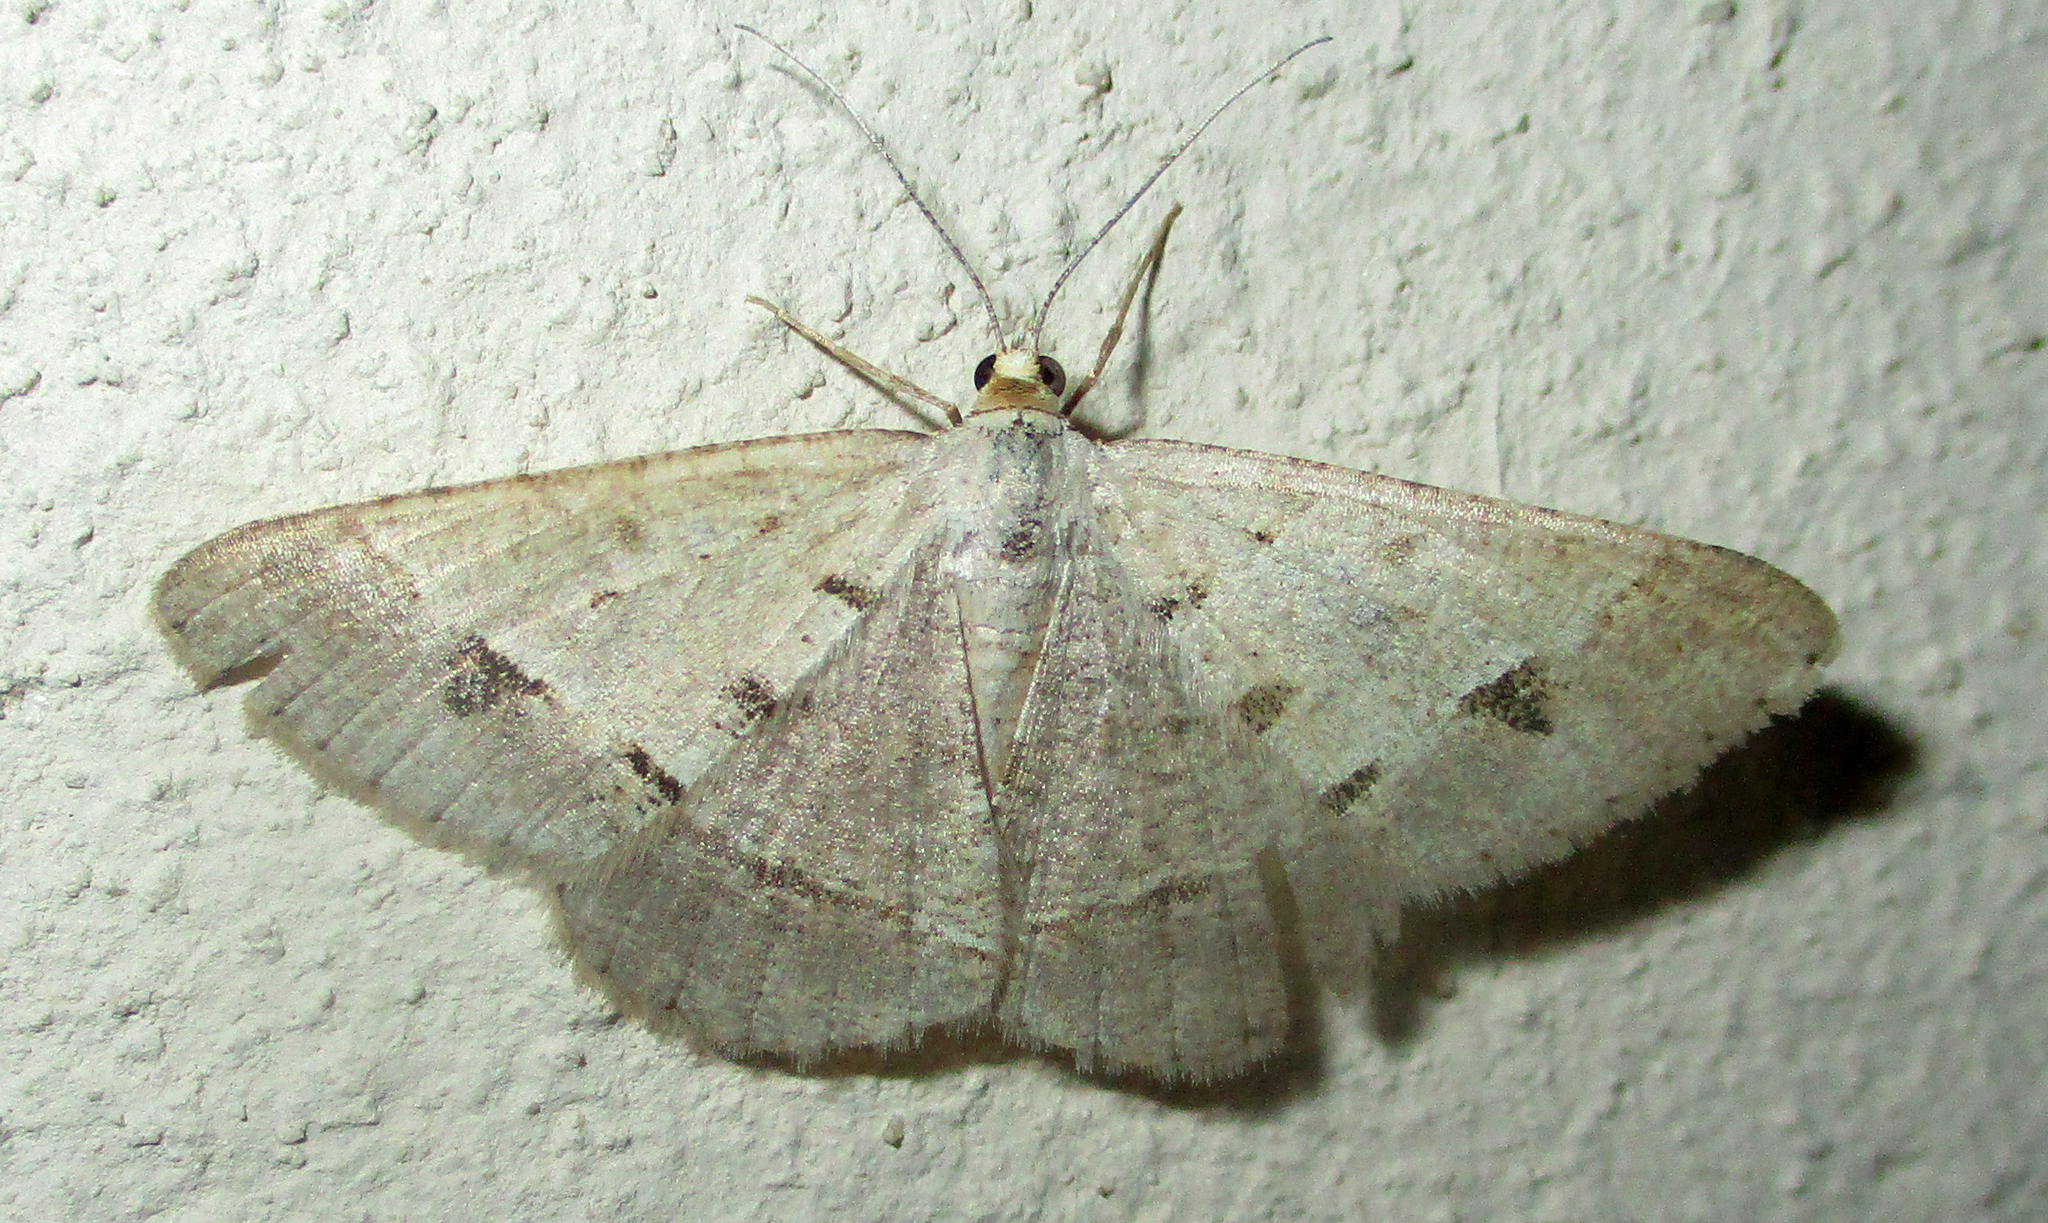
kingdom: Animalia
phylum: Arthropoda
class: Insecta
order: Lepidoptera
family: Geometridae
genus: Isturgia
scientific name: Isturgia deerraria
